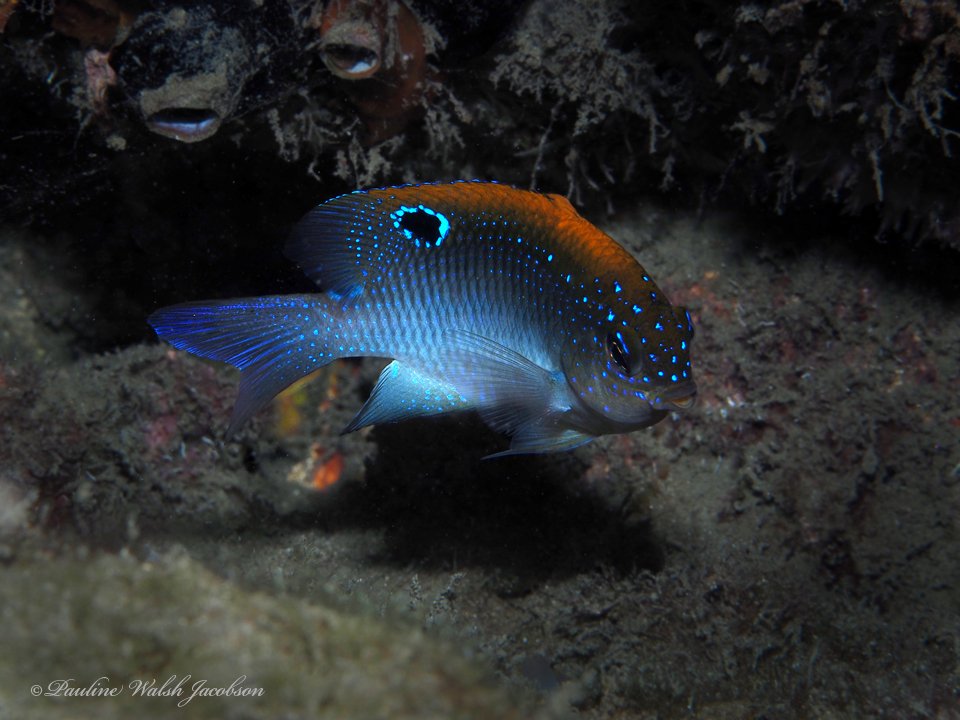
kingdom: Animalia
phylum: Chordata
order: Perciformes
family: Pomacentridae
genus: Stegastes
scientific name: Stegastes adustus
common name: Dusky damselfish
